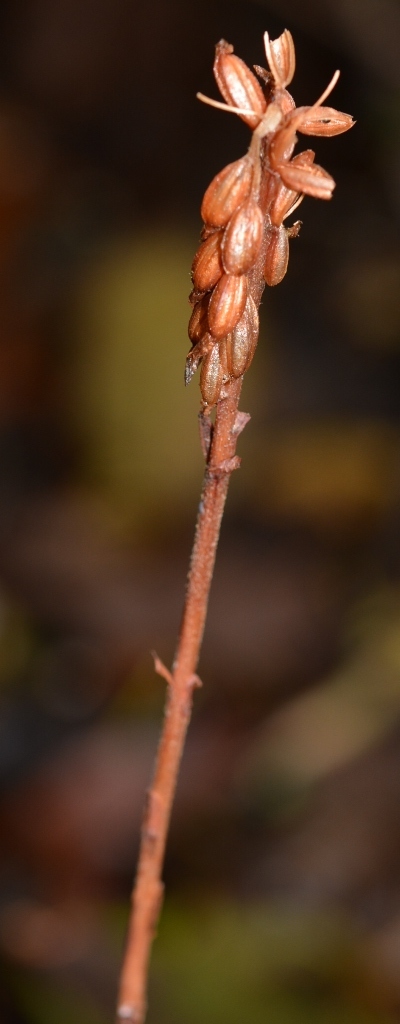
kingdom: Plantae
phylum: Tracheophyta
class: Liliopsida
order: Asparagales
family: Orchidaceae
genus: Goodyera
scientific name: Goodyera striata
